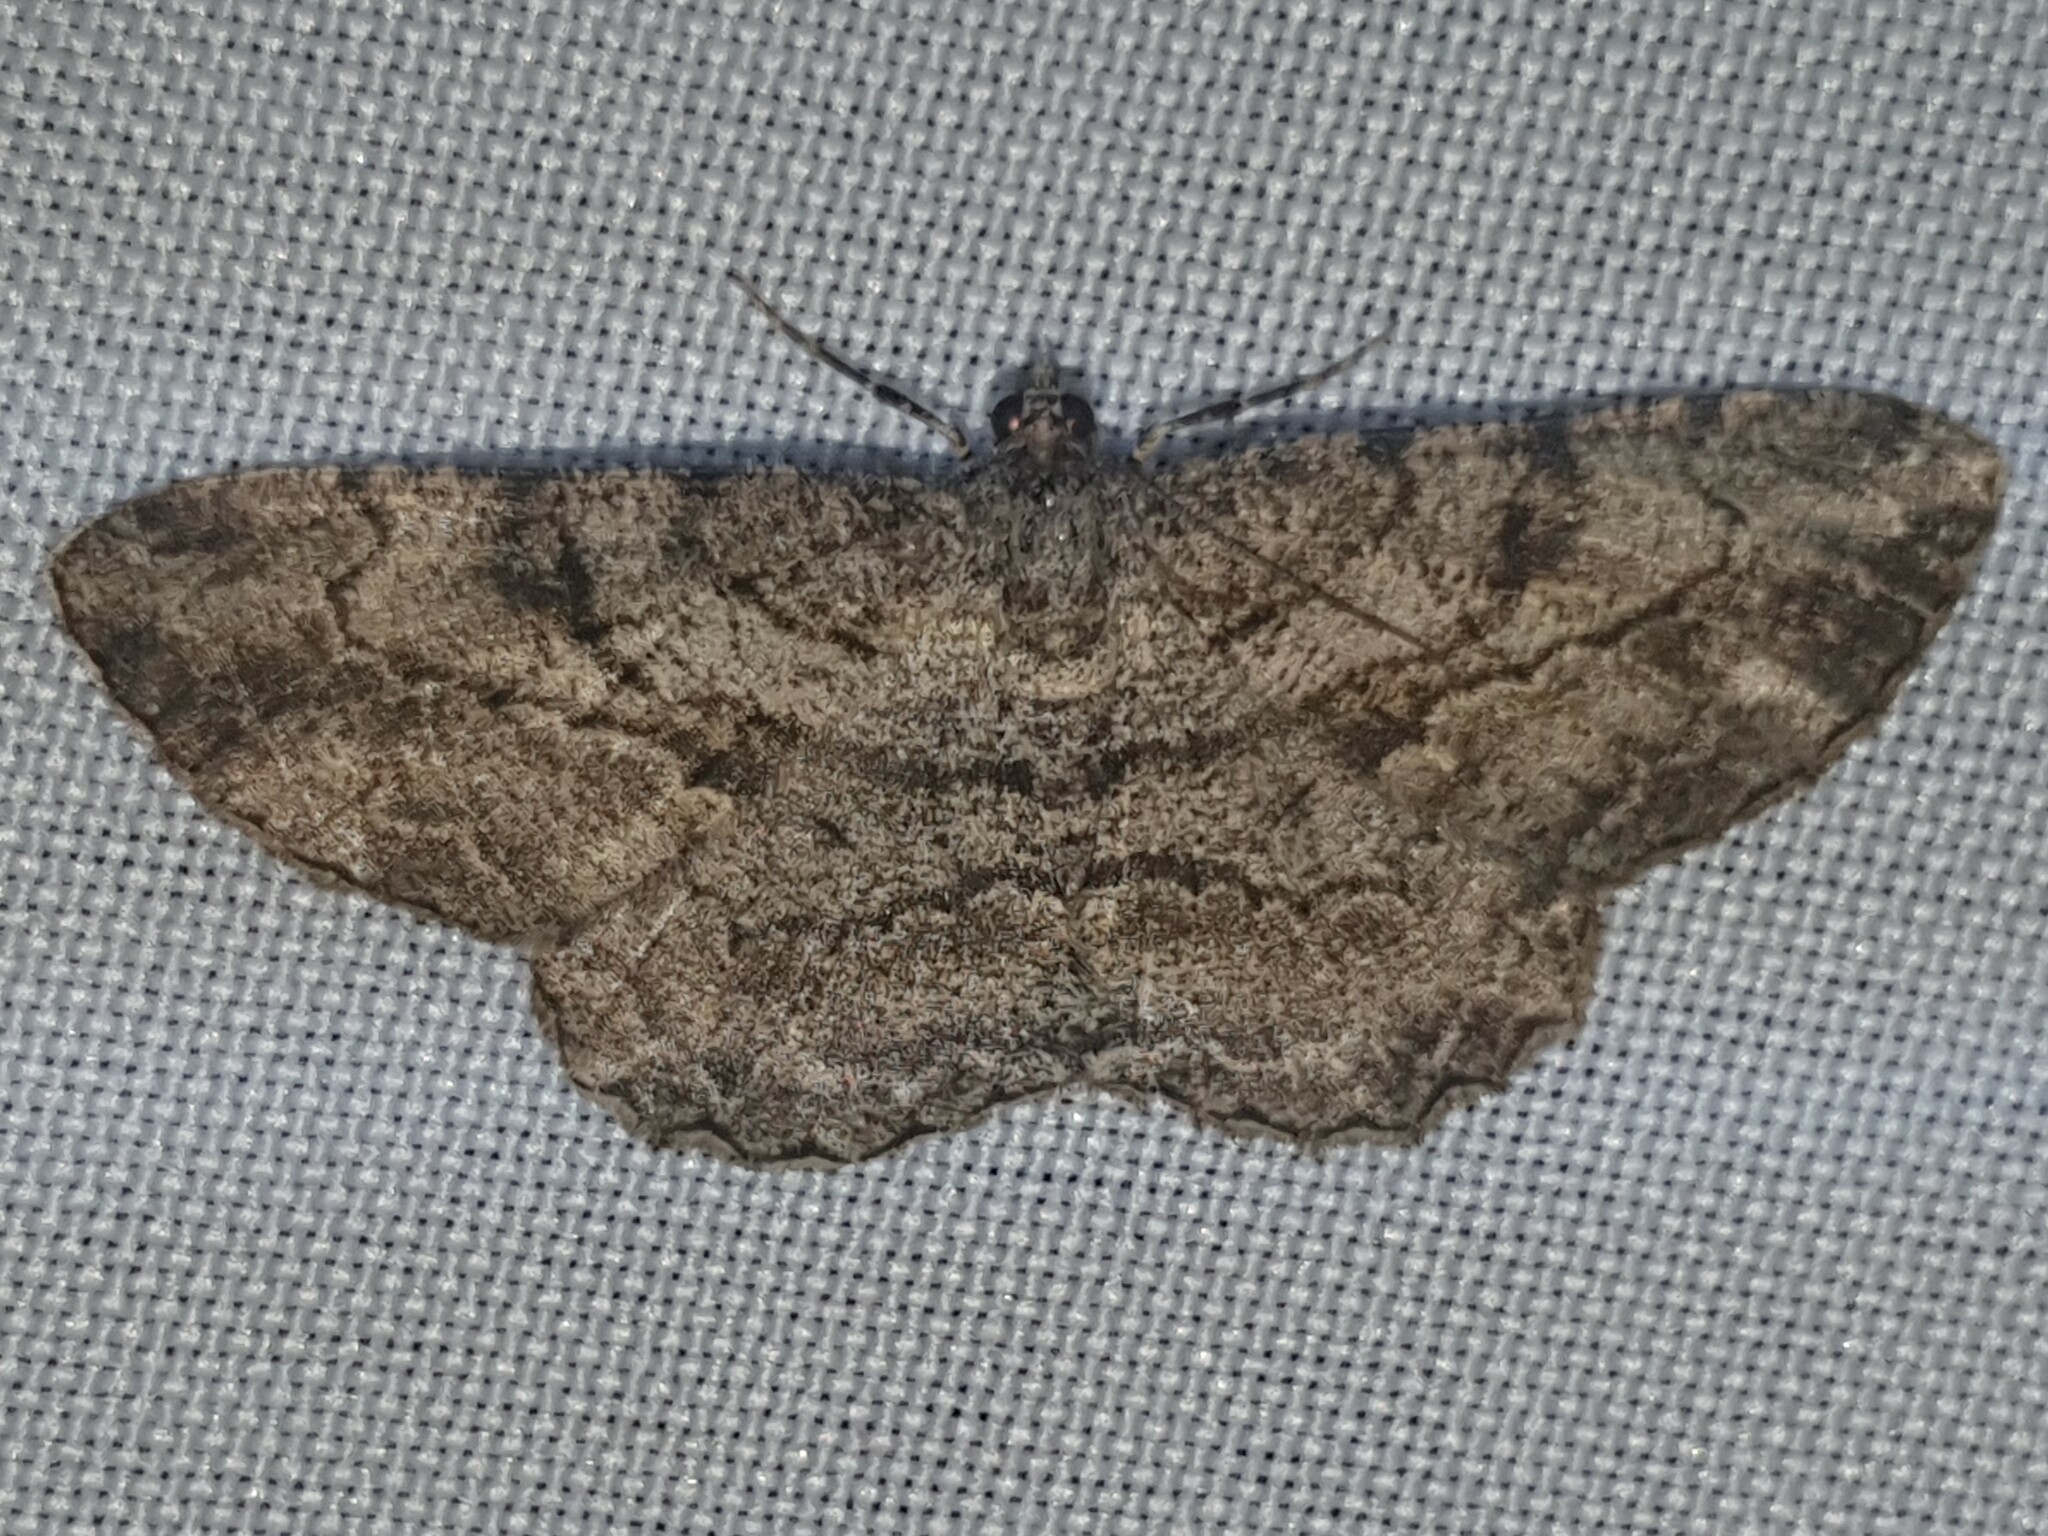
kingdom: Animalia
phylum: Arthropoda
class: Insecta
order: Lepidoptera
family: Geometridae
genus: Peribatodes
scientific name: Peribatodes rhomboidaria
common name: Willow beauty
